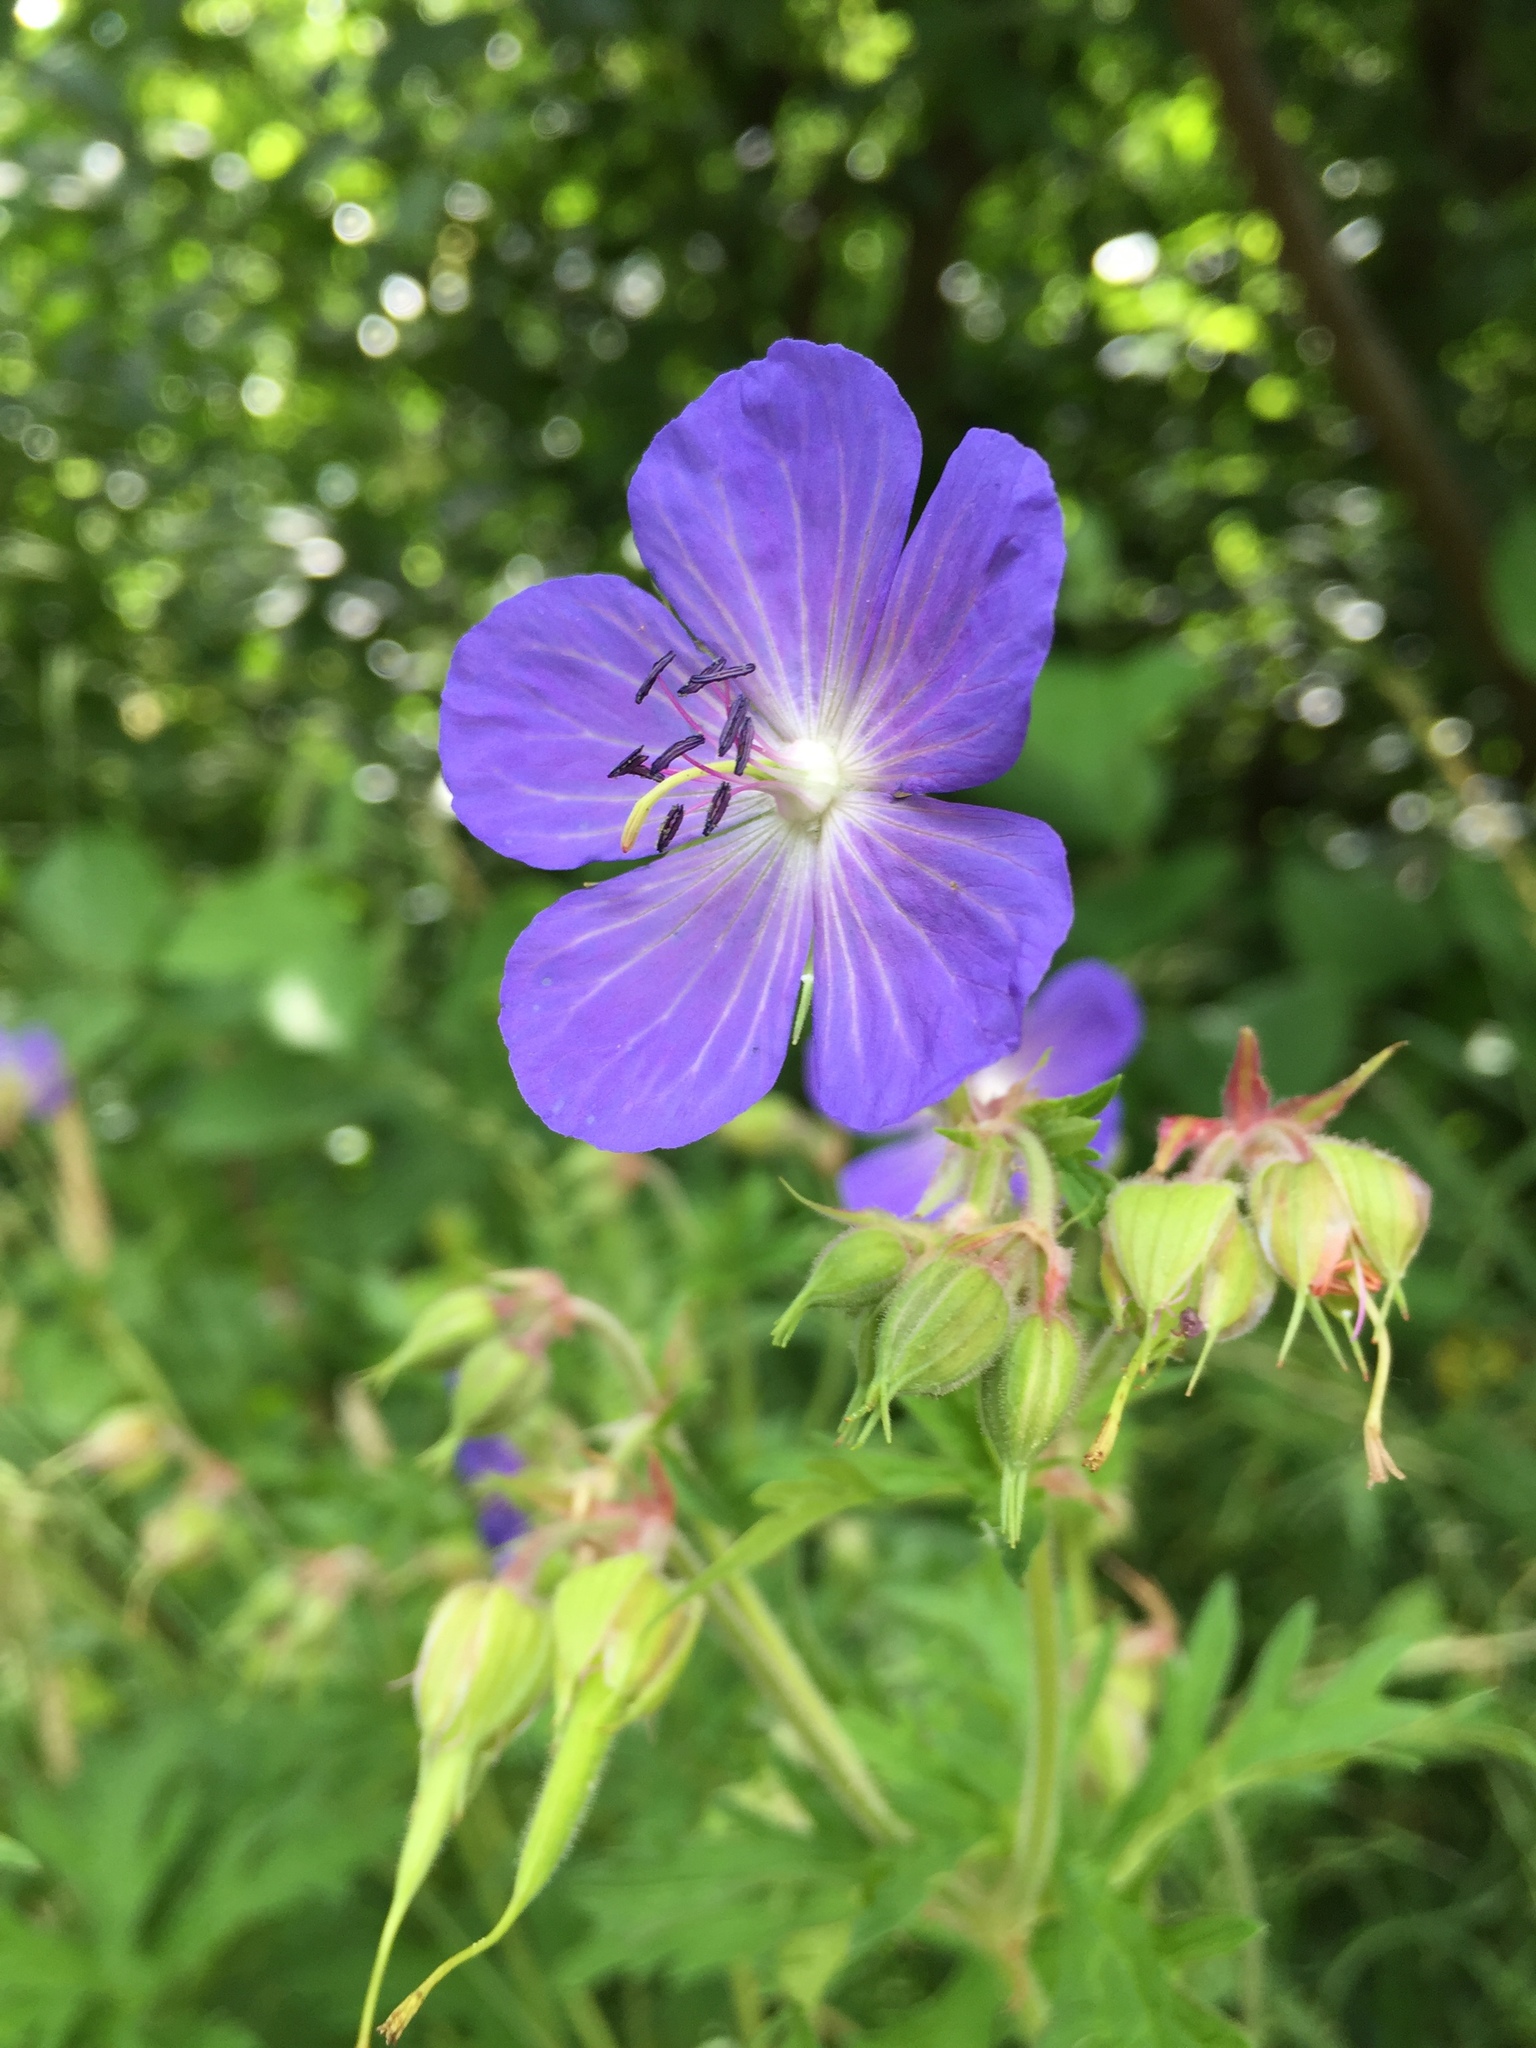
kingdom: Plantae
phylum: Tracheophyta
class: Magnoliopsida
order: Geraniales
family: Geraniaceae
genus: Geranium
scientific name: Geranium pratense
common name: Meadow crane's-bill
